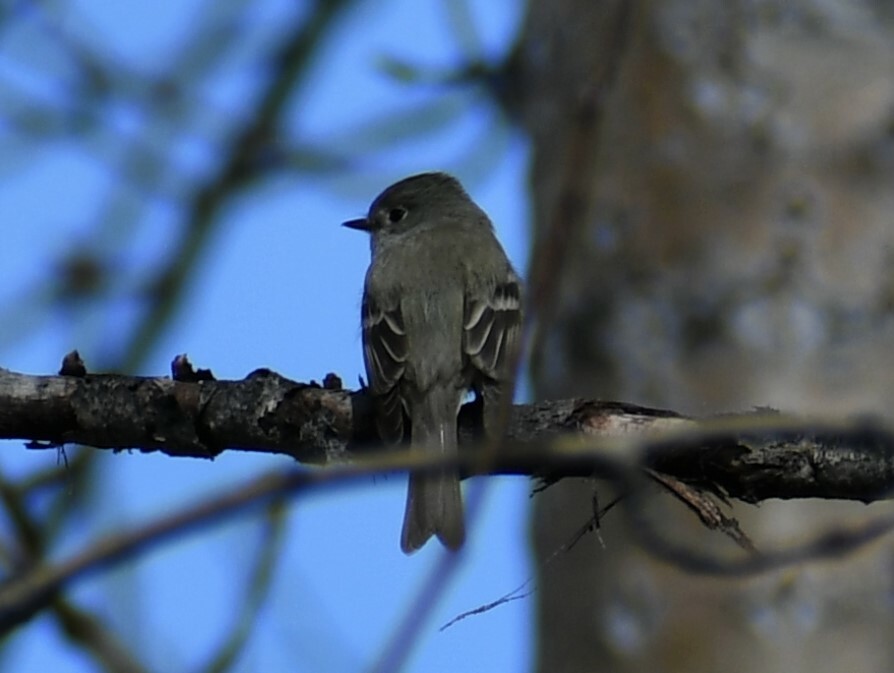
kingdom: Animalia
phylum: Chordata
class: Aves
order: Passeriformes
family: Tyrannidae
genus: Empidonax
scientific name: Empidonax hammondii
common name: Hammond's flycatcher
